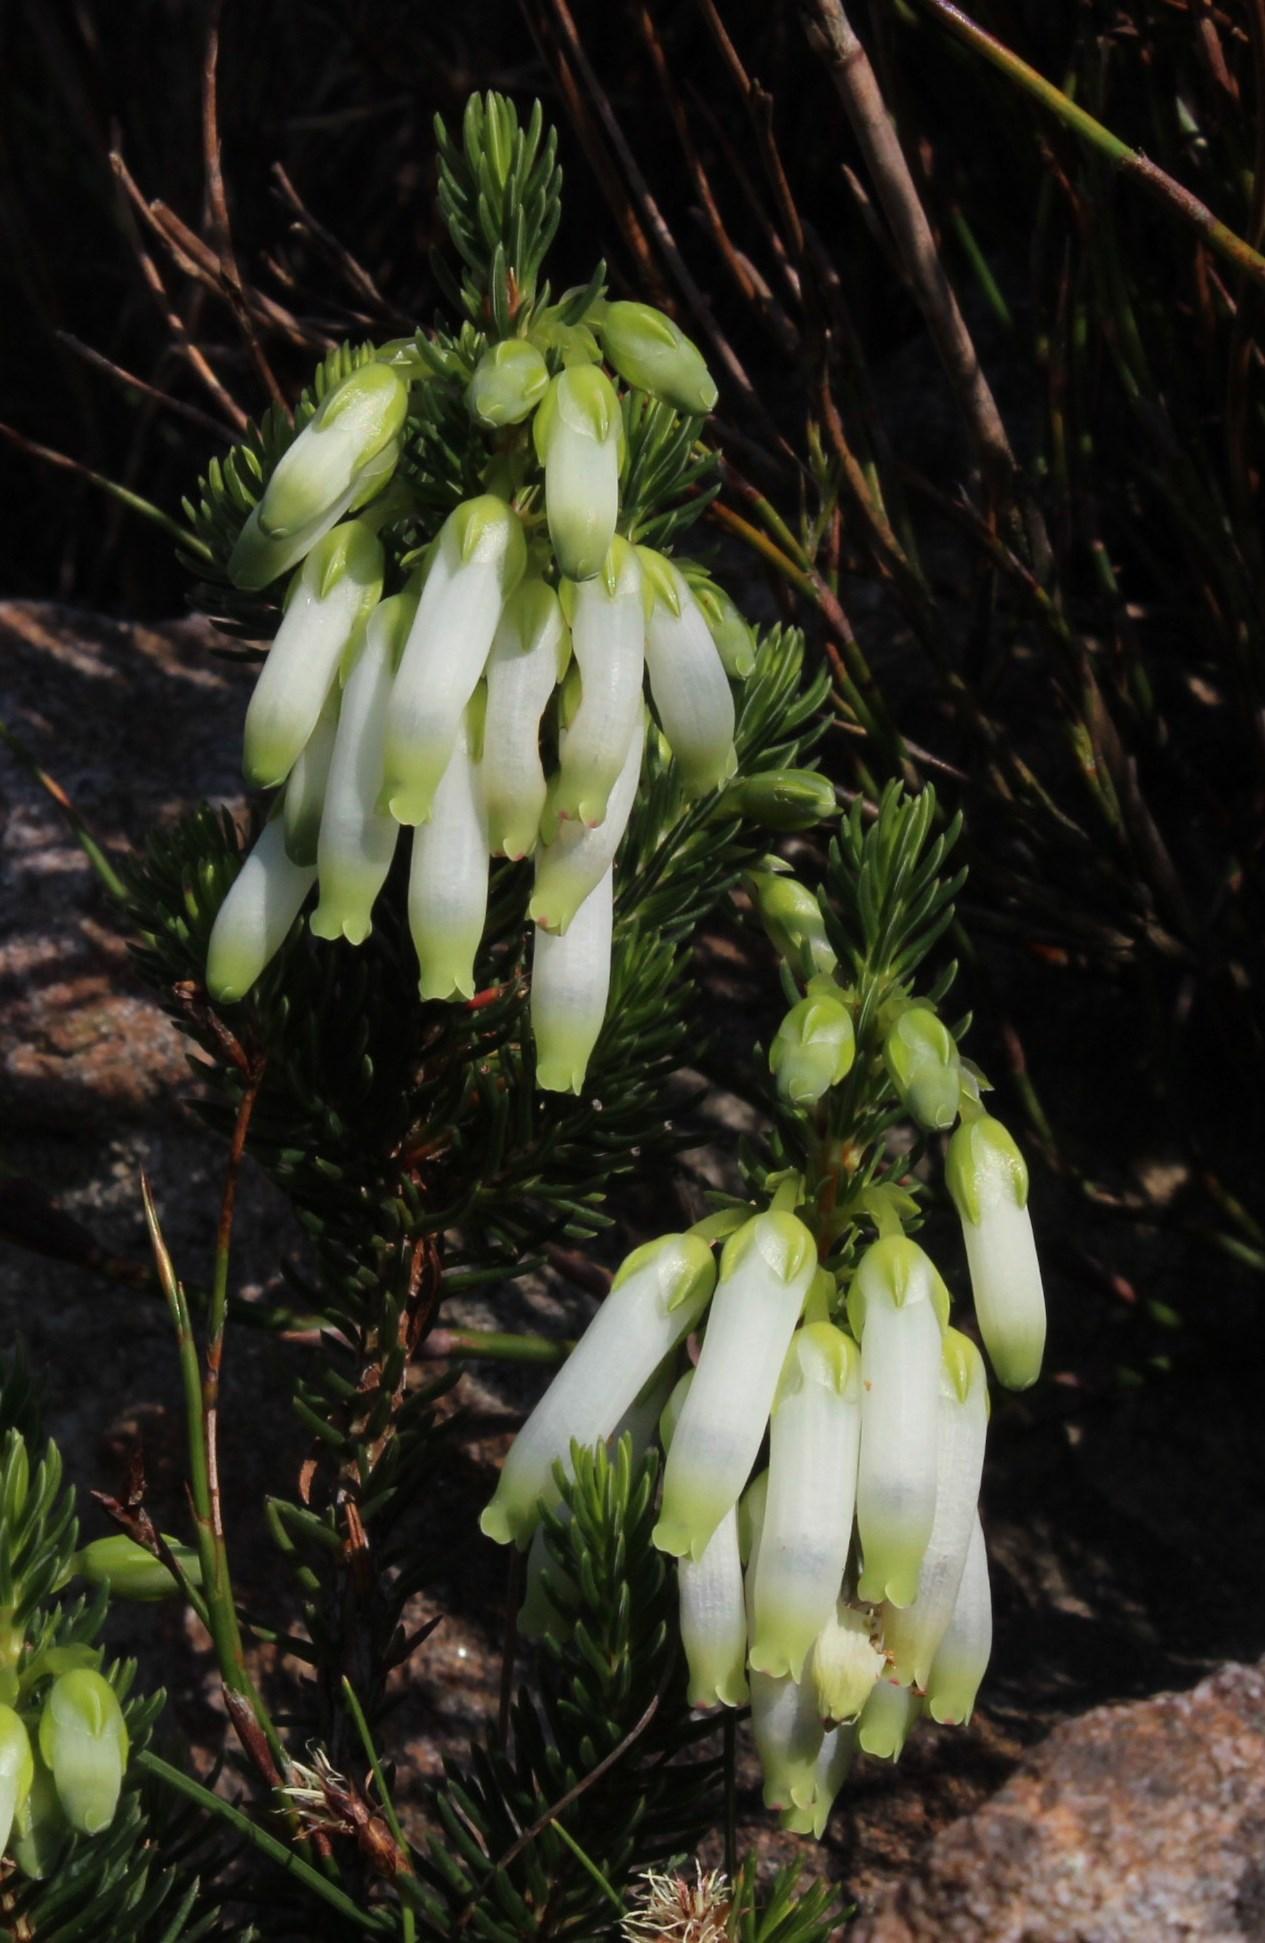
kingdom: Plantae
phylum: Tracheophyta
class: Magnoliopsida
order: Ericales
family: Ericaceae
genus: Erica
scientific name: Erica mammosa
